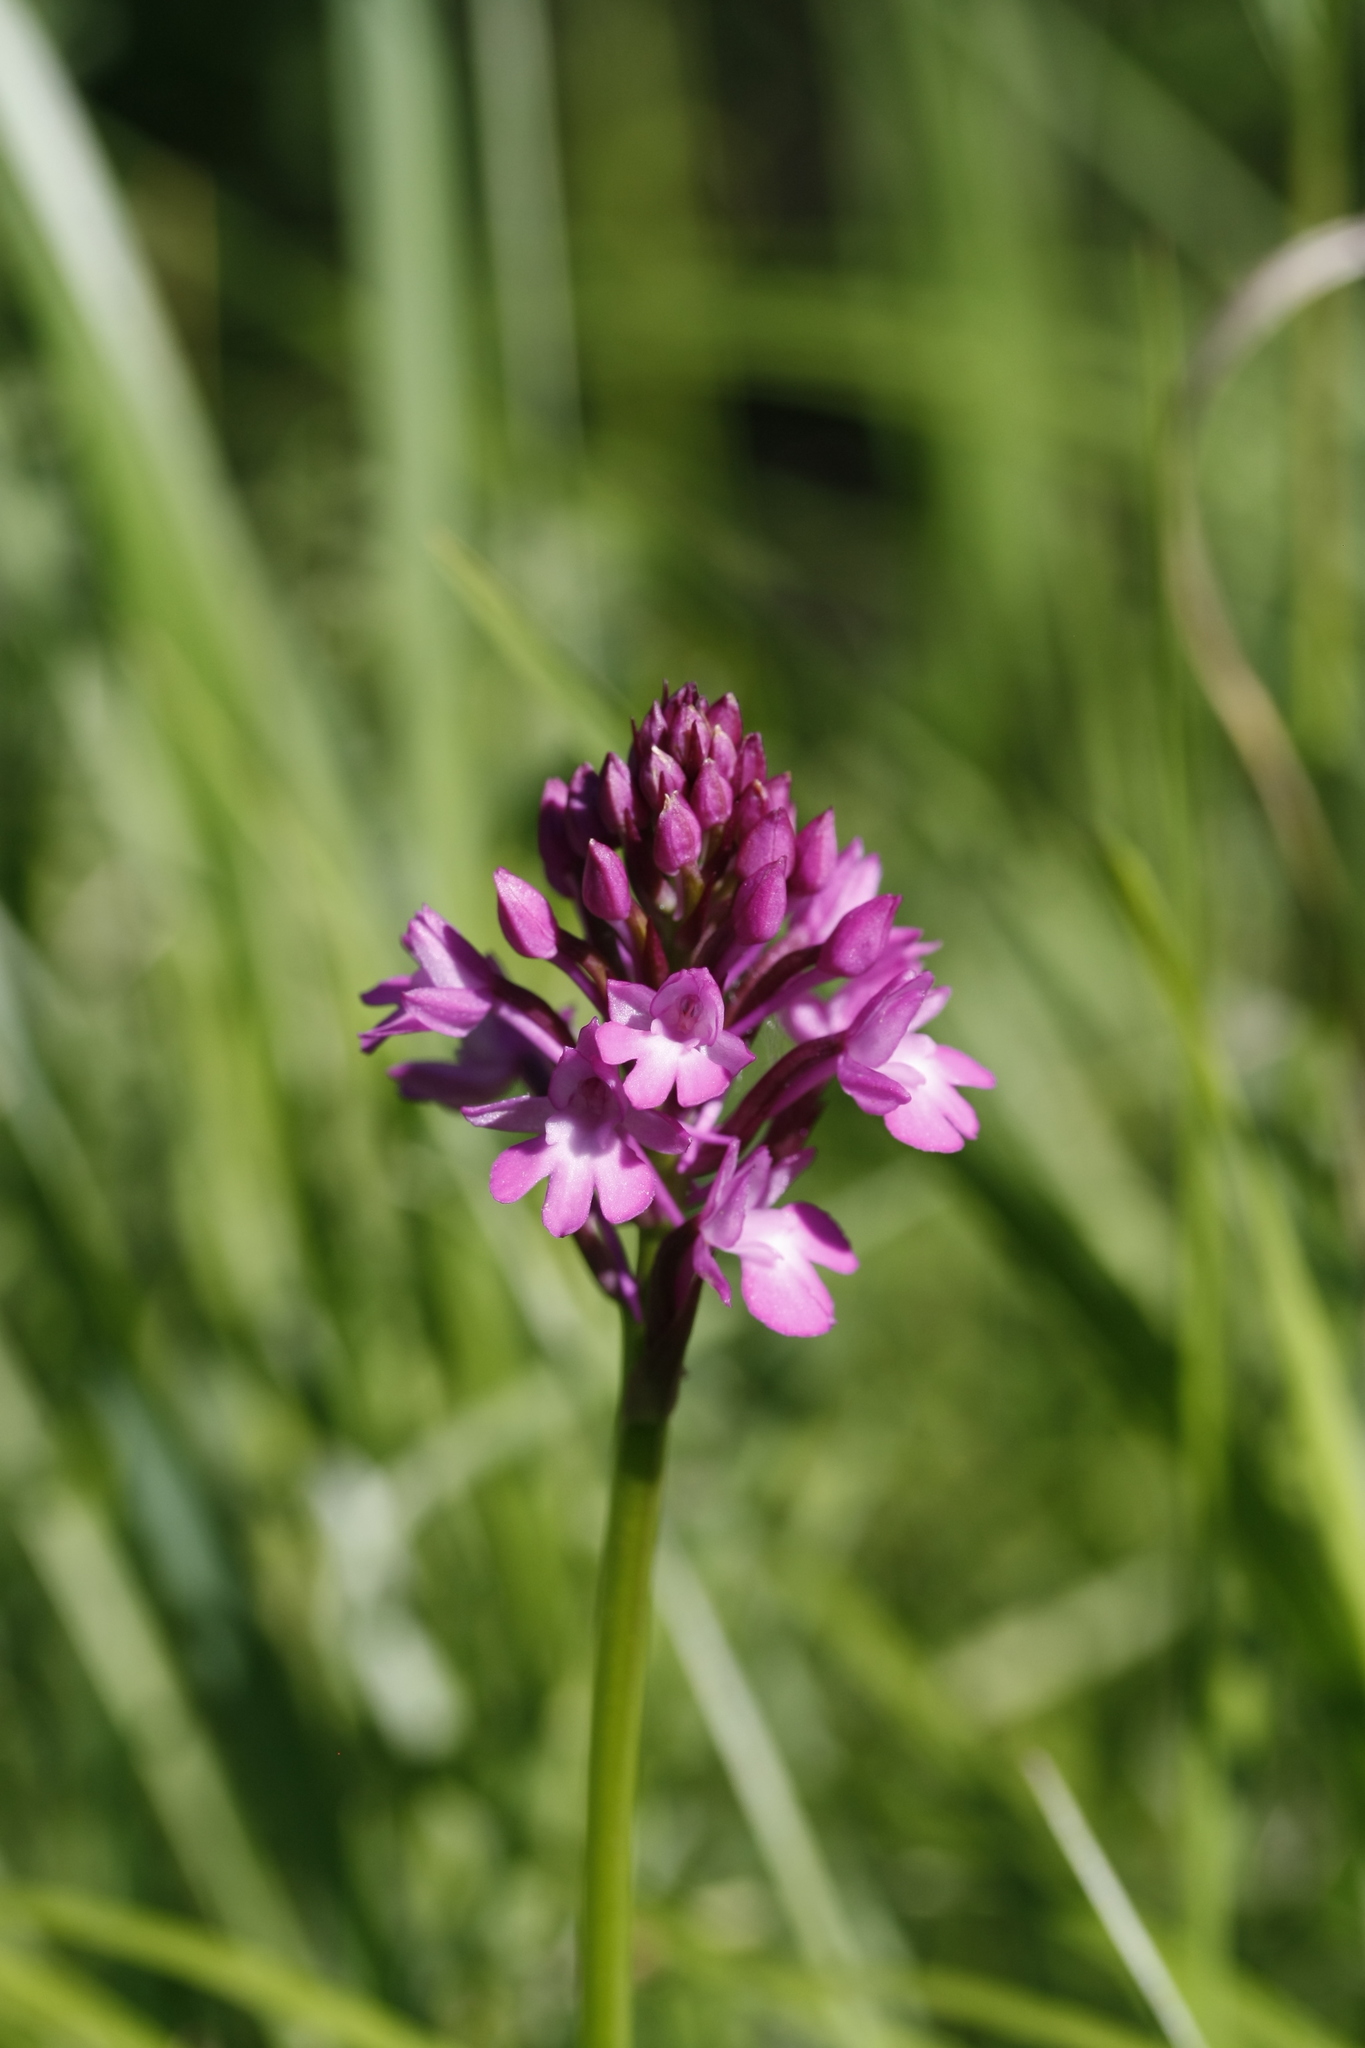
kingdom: Plantae
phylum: Tracheophyta
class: Liliopsida
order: Asparagales
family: Orchidaceae
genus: Anacamptis
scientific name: Anacamptis pyramidalis
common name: Pyramidal orchid
